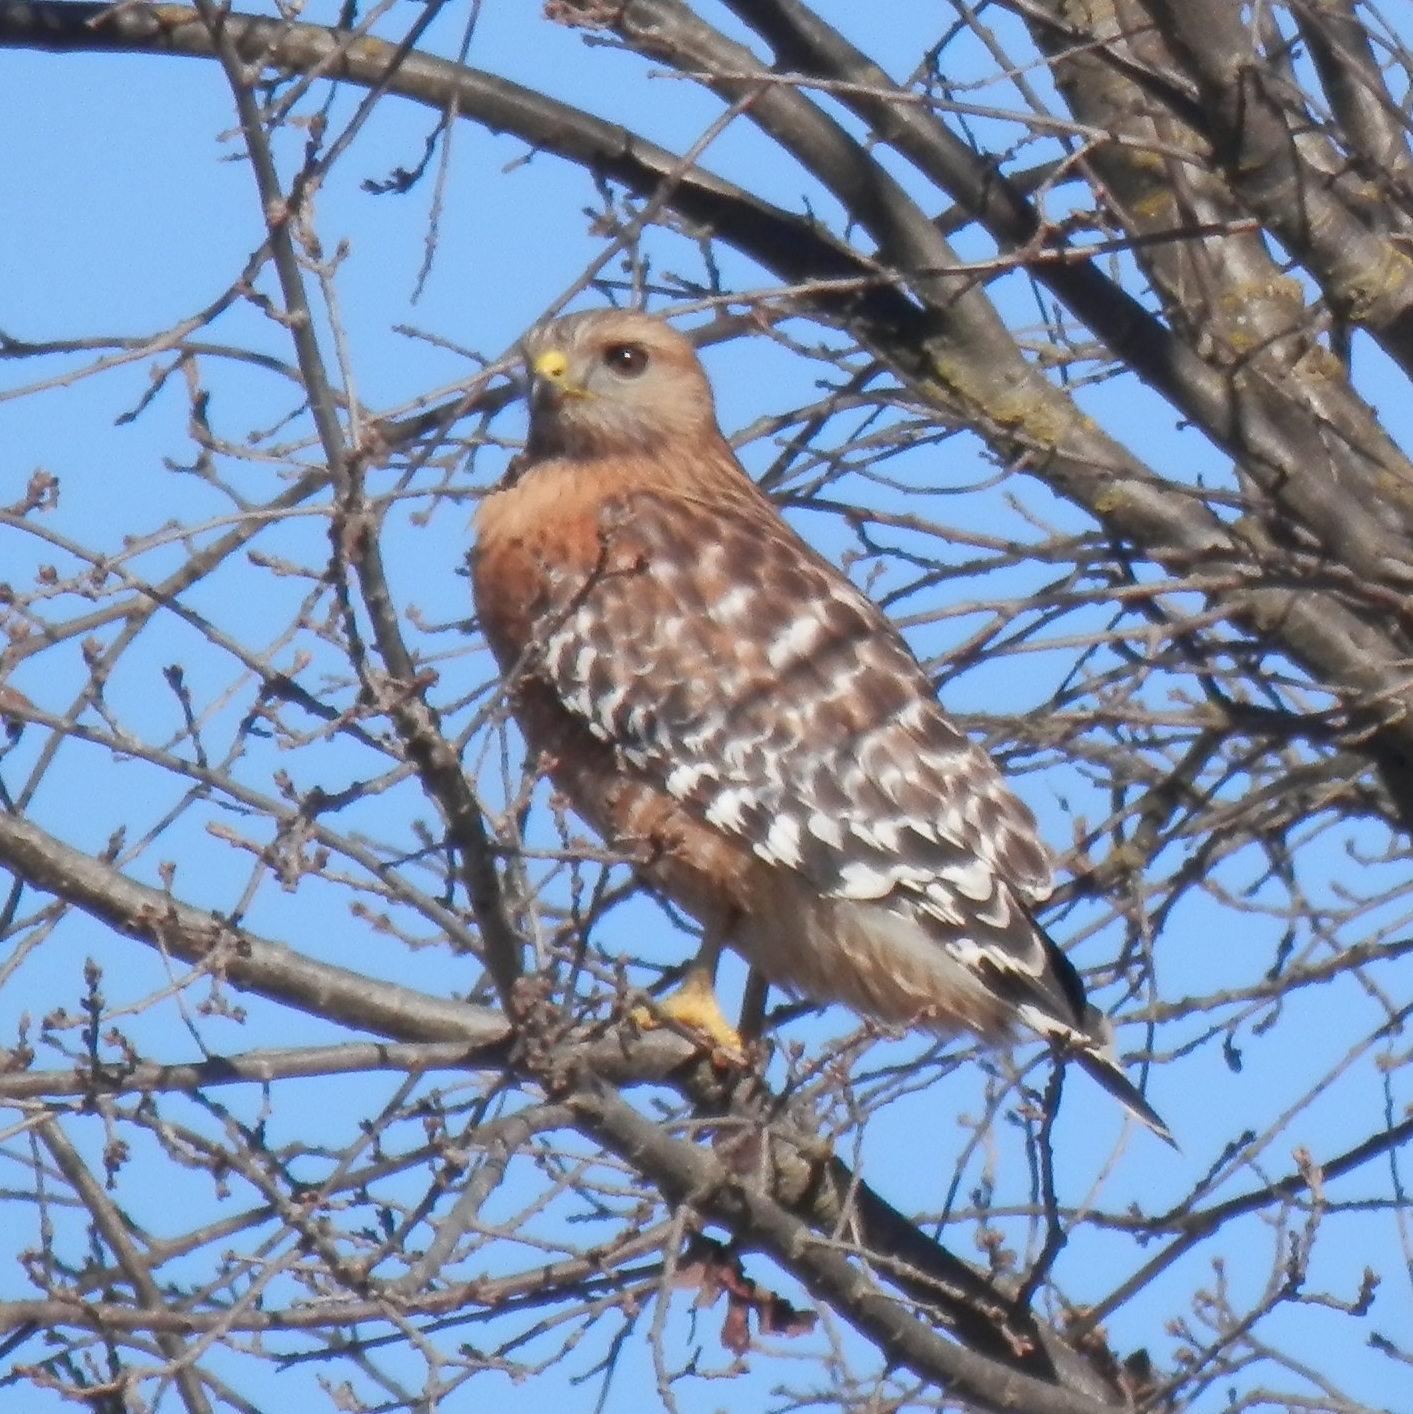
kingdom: Animalia
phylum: Chordata
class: Aves
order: Accipitriformes
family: Accipitridae
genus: Buteo
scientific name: Buteo lineatus
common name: Red-shouldered hawk
